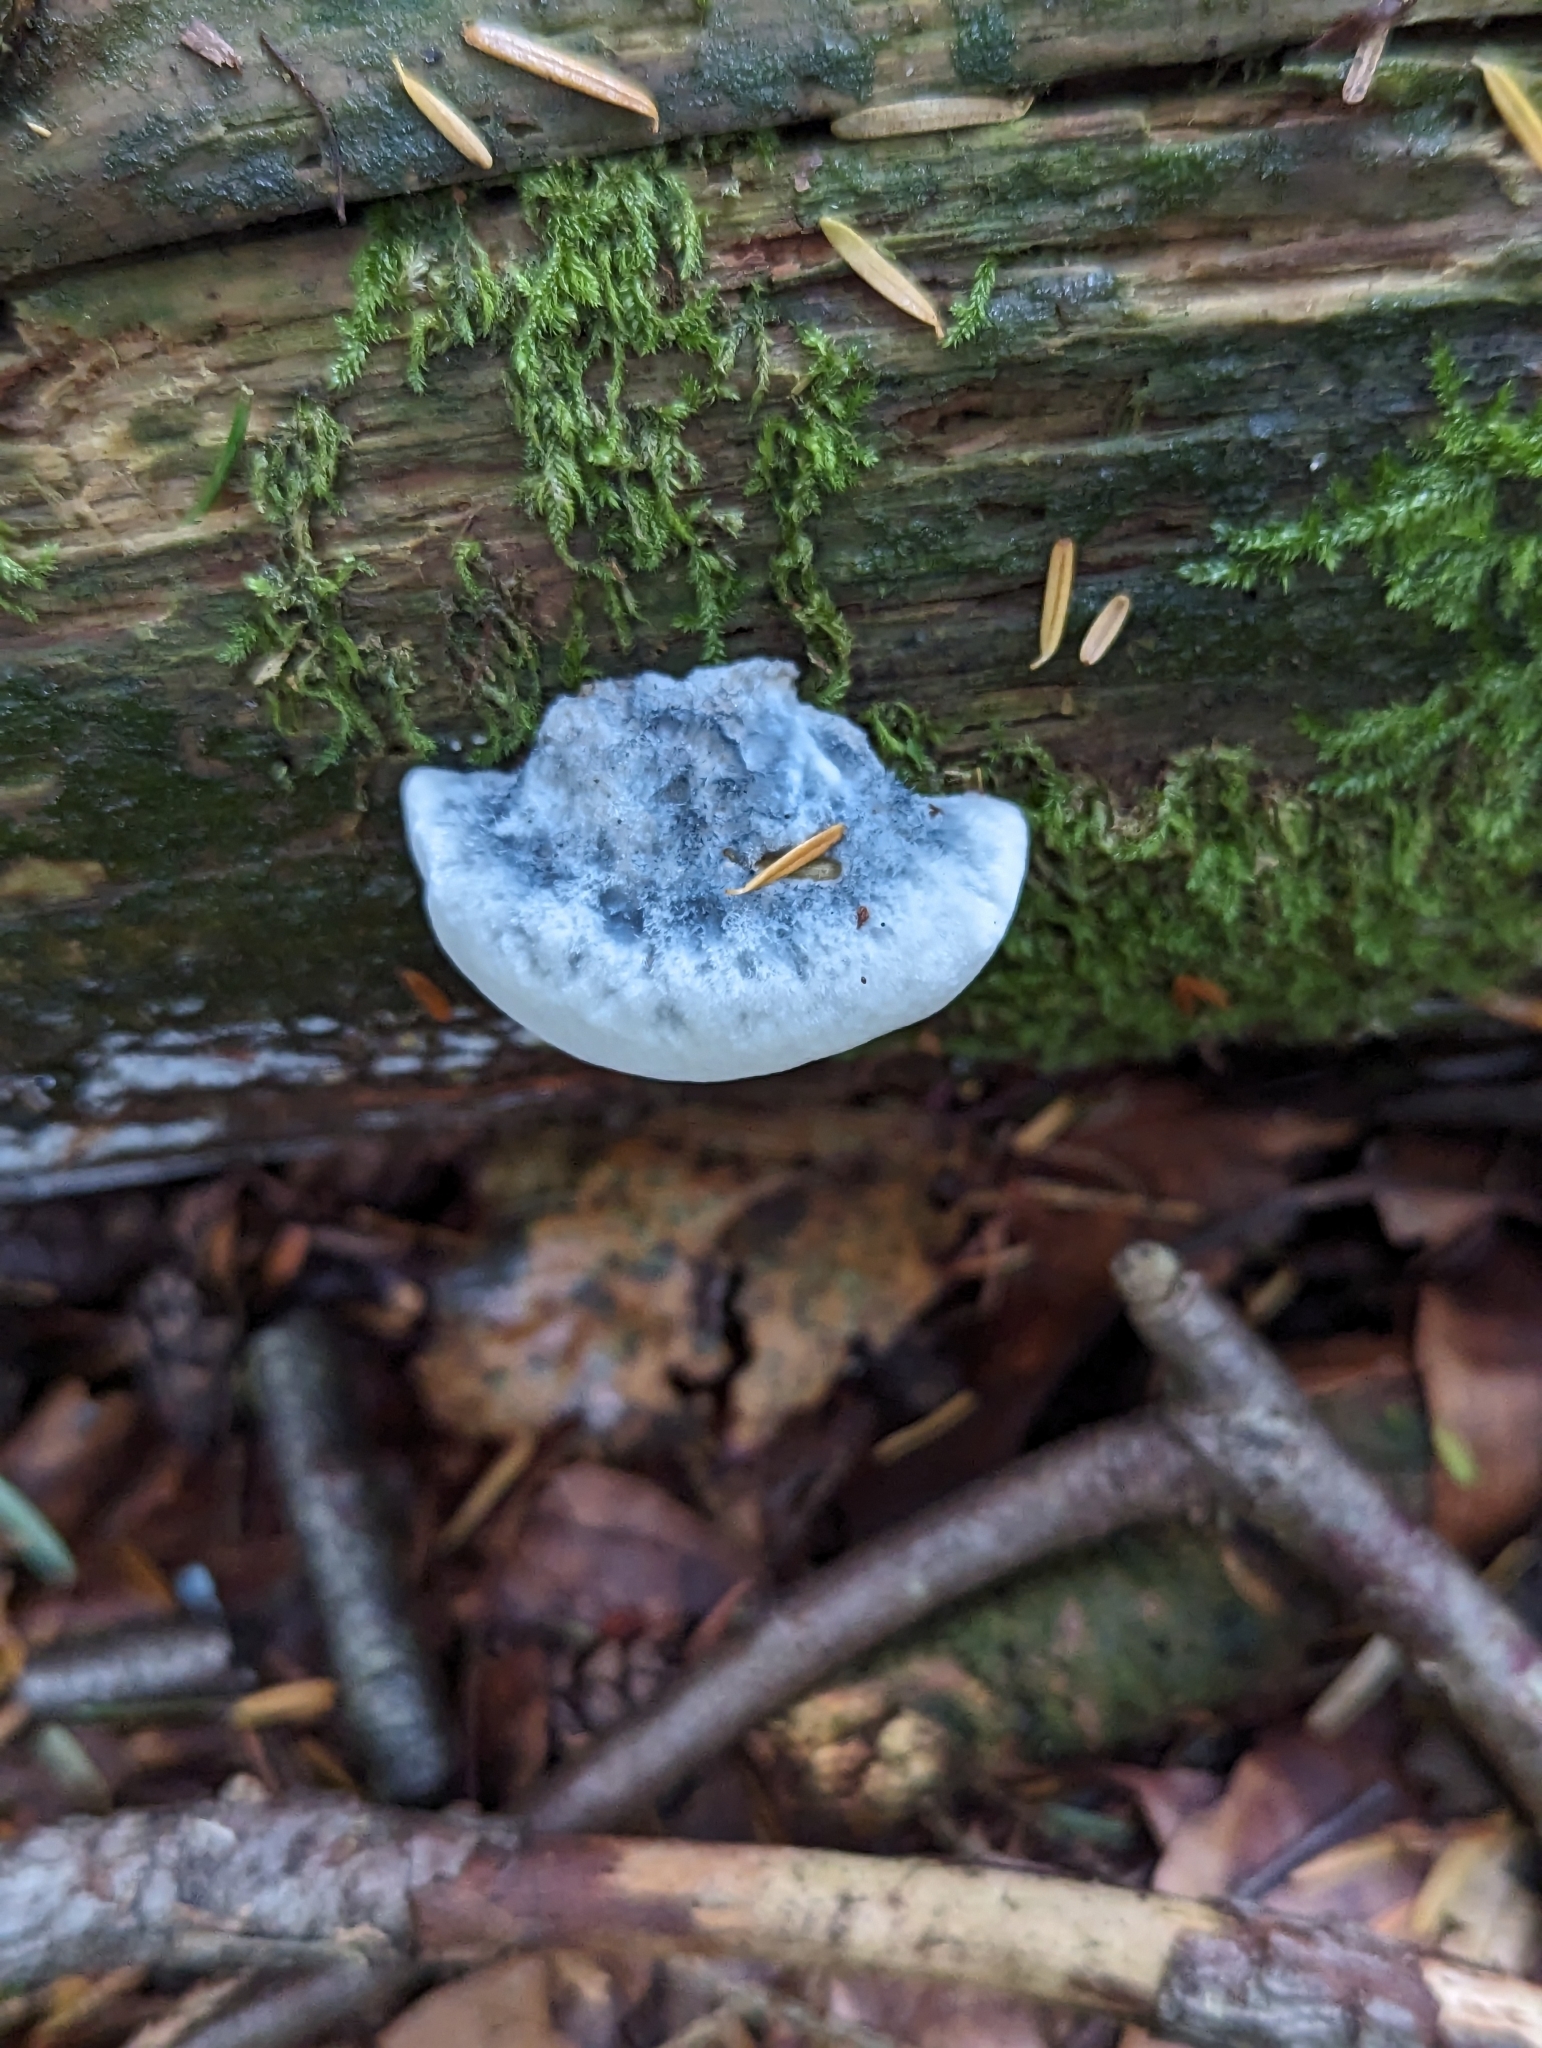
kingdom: Fungi
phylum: Basidiomycota
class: Agaricomycetes
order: Polyporales
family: Polyporaceae
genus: Cyanosporus
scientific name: Cyanosporus caesius
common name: Blue cheese polypore
